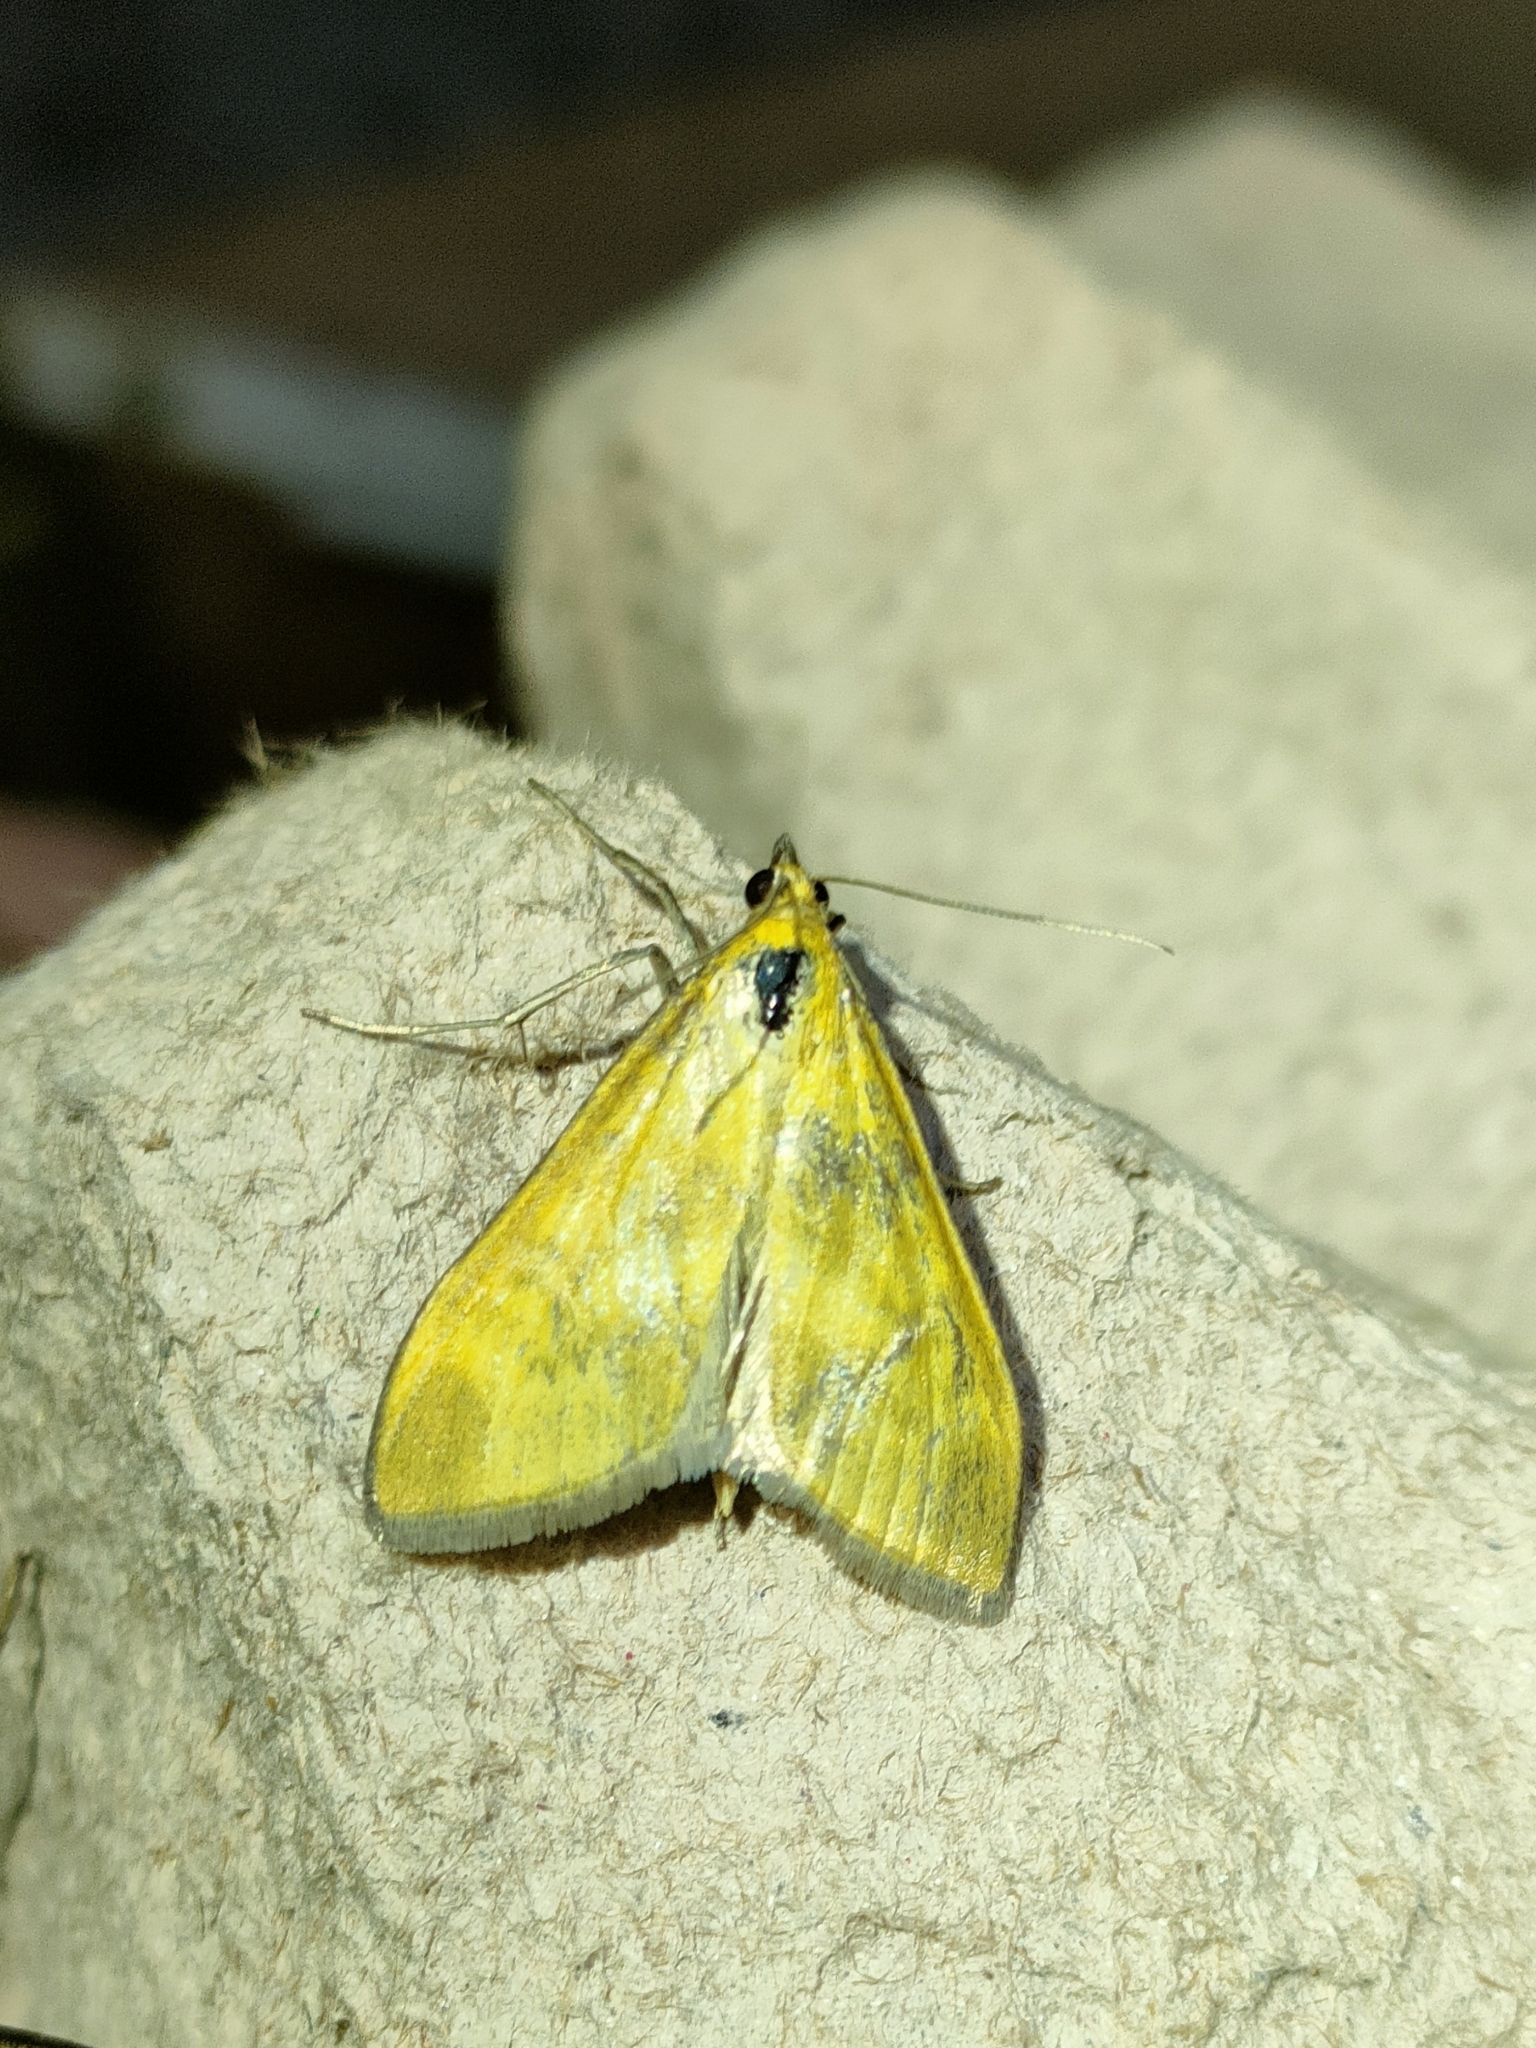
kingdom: Animalia
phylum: Arthropoda
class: Insecta
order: Lepidoptera
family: Crambidae
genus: Mecyna
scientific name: Mecyna lutealis
